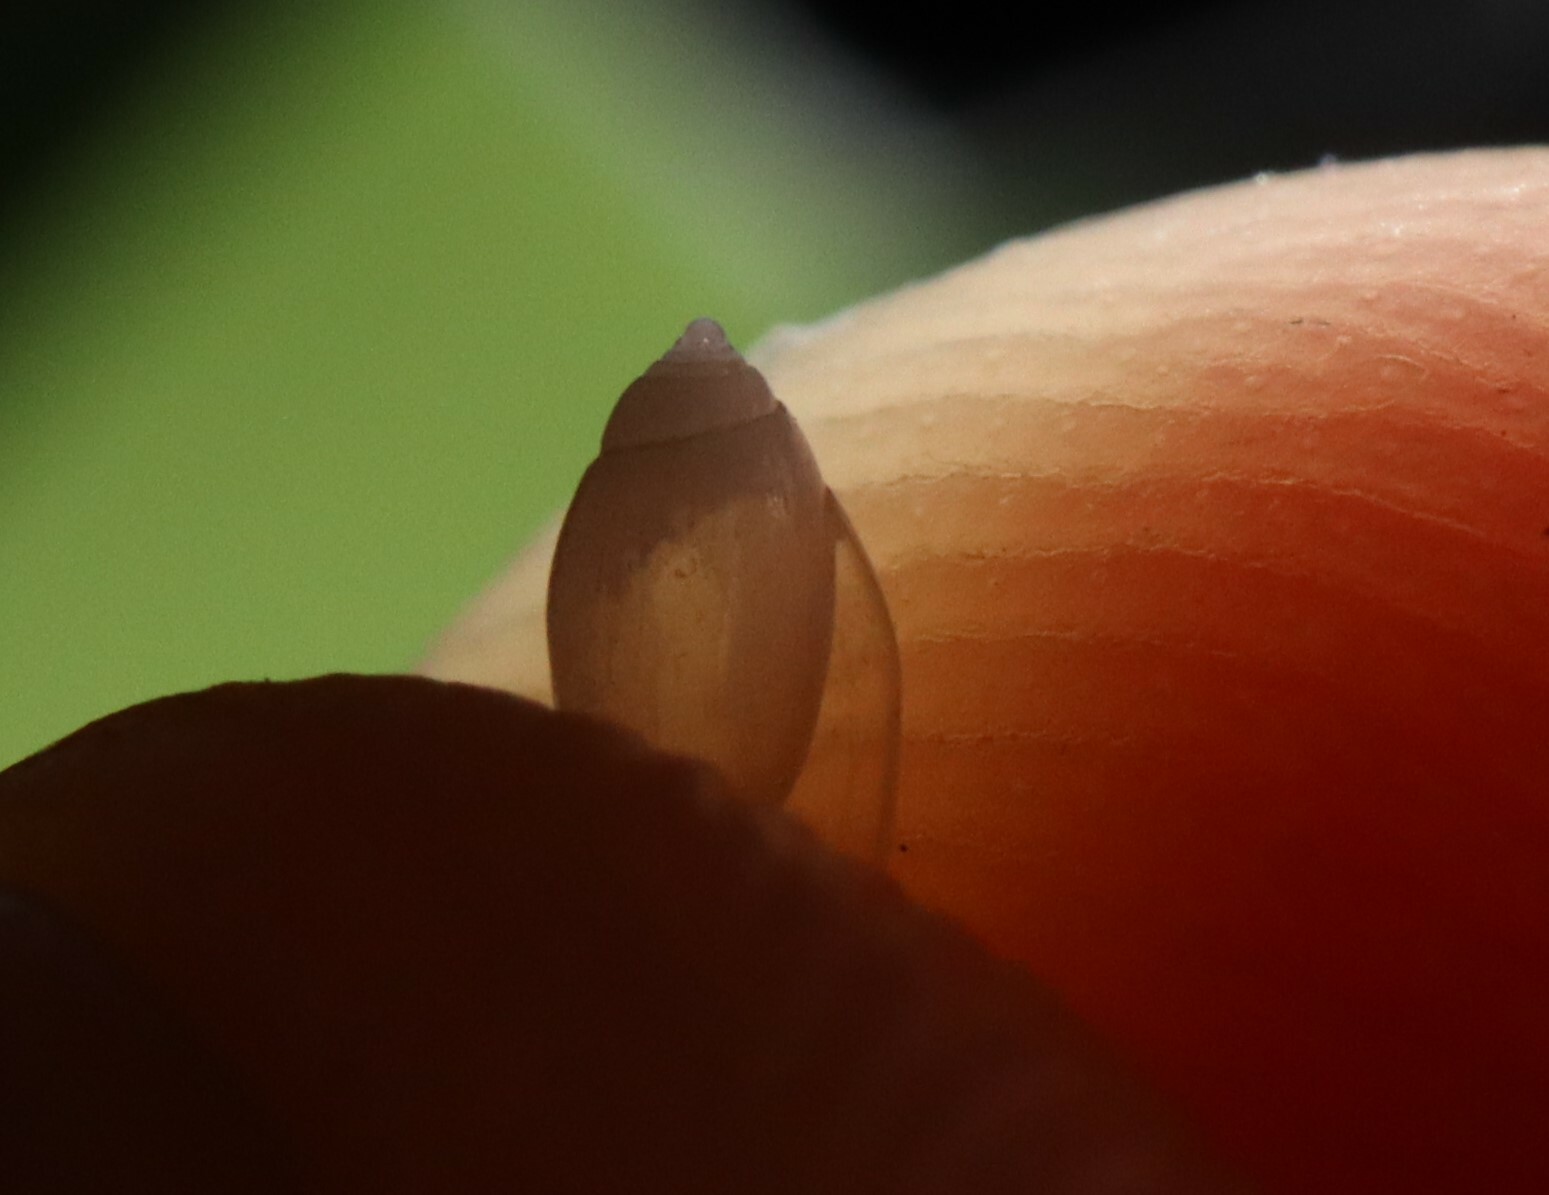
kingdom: Animalia
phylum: Mollusca
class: Gastropoda
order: Ellobiida
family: Ellobiidae
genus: Leuconopsis
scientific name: Leuconopsis inermis
